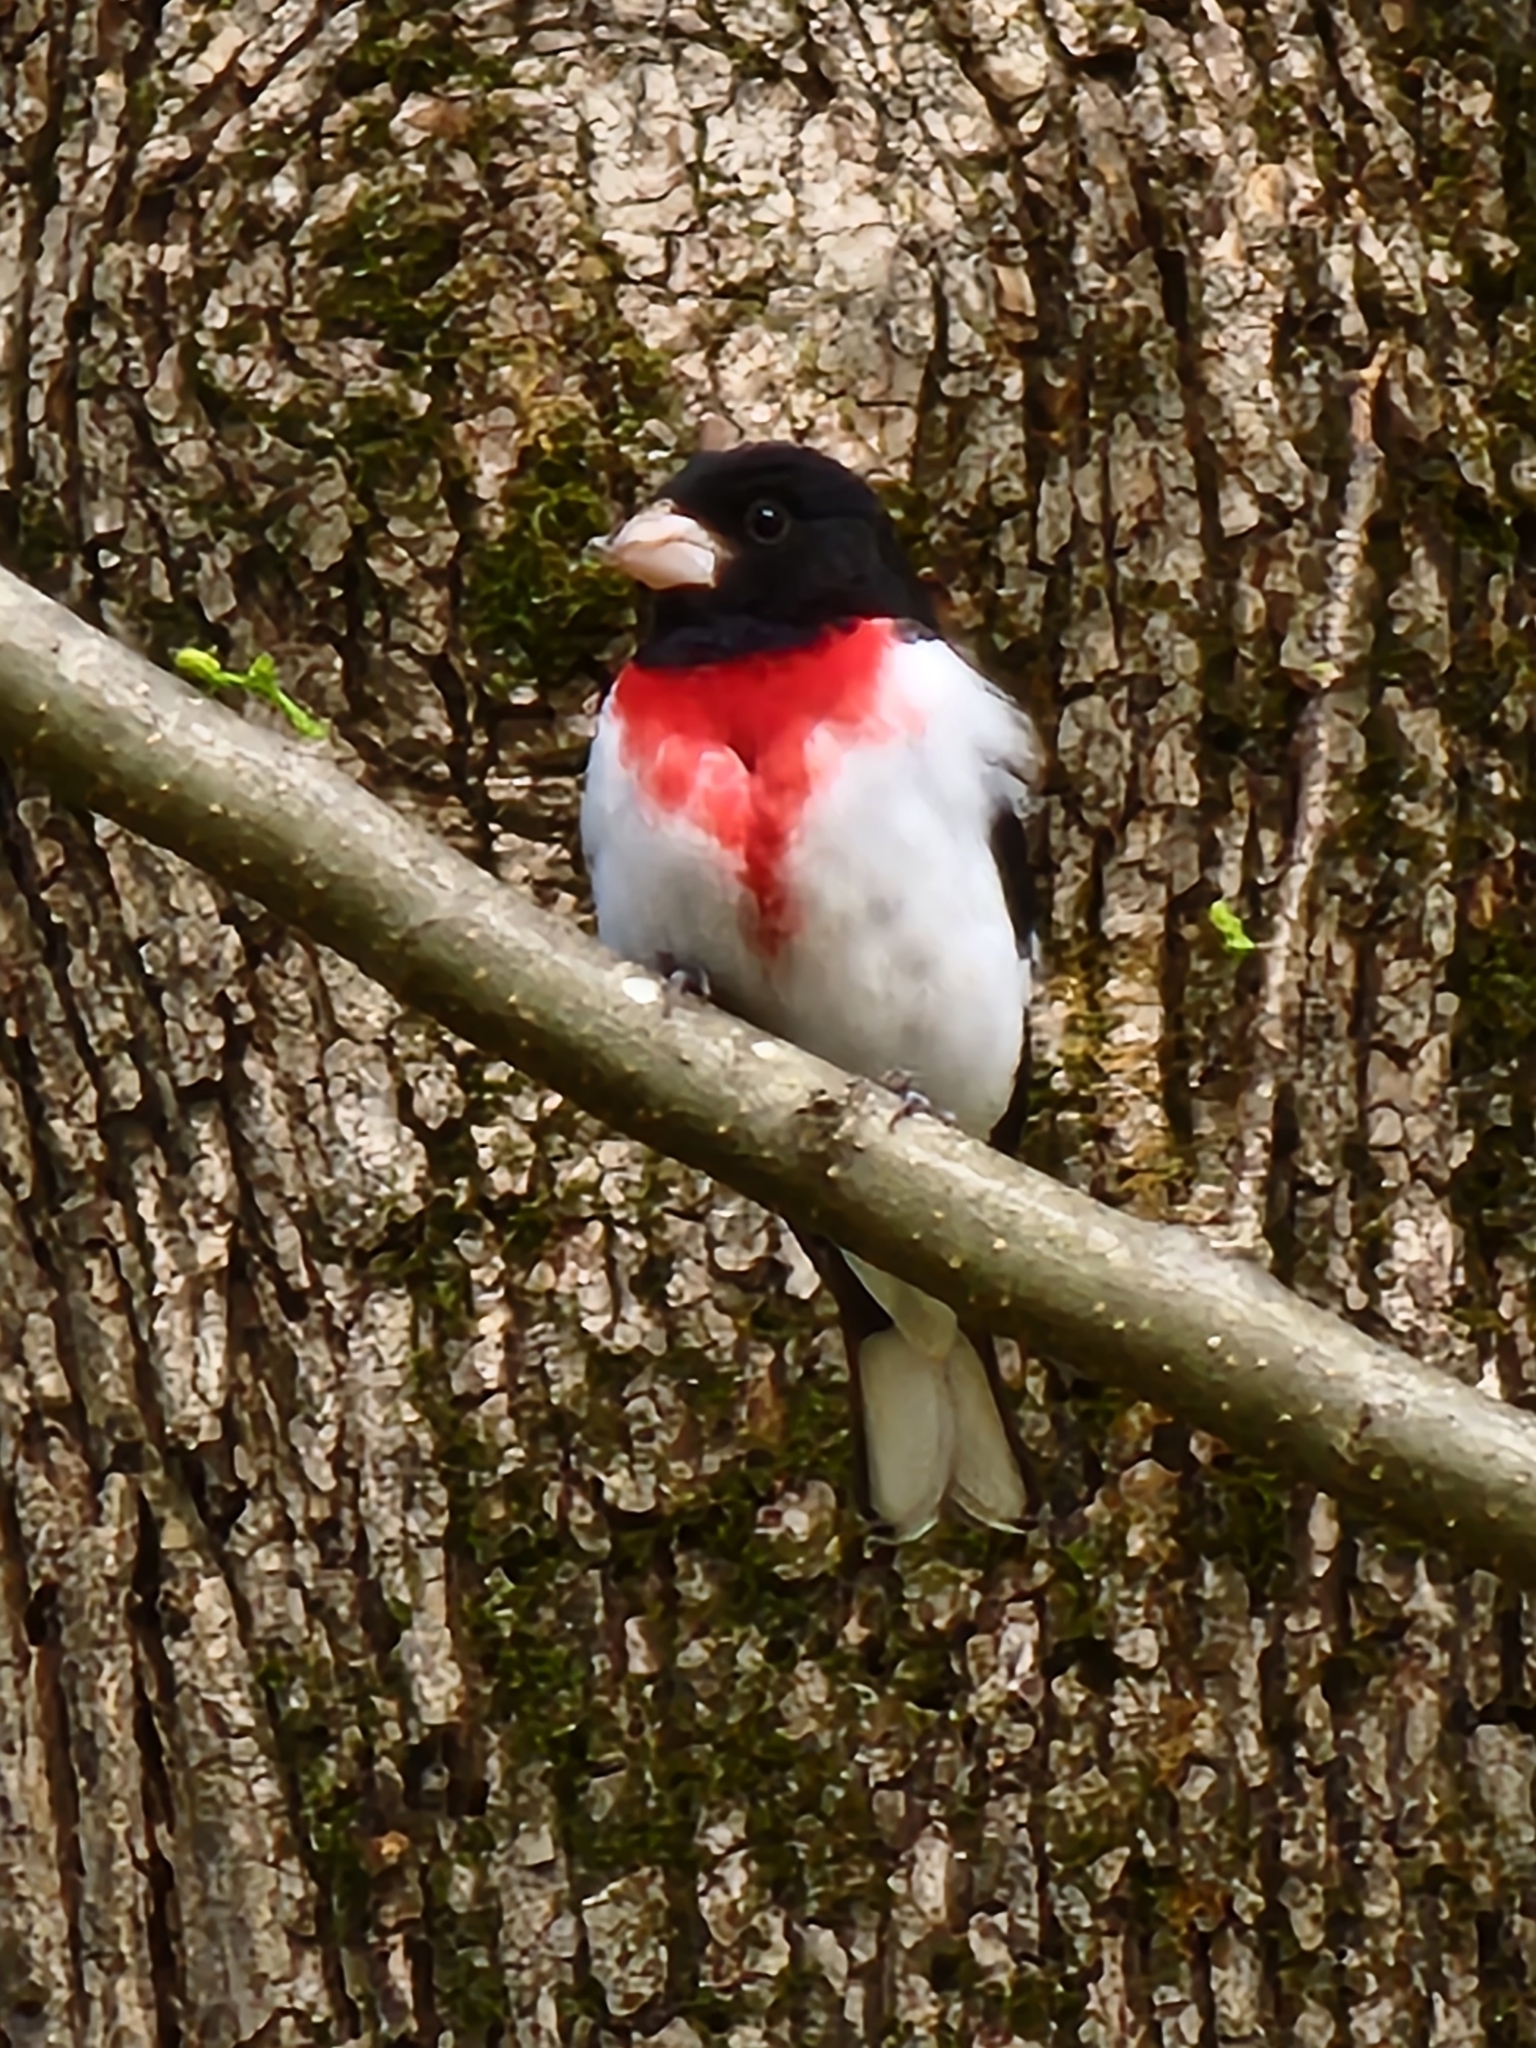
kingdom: Animalia
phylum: Chordata
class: Aves
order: Passeriformes
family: Cardinalidae
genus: Pheucticus
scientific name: Pheucticus ludovicianus
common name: Rose-breasted grosbeak
